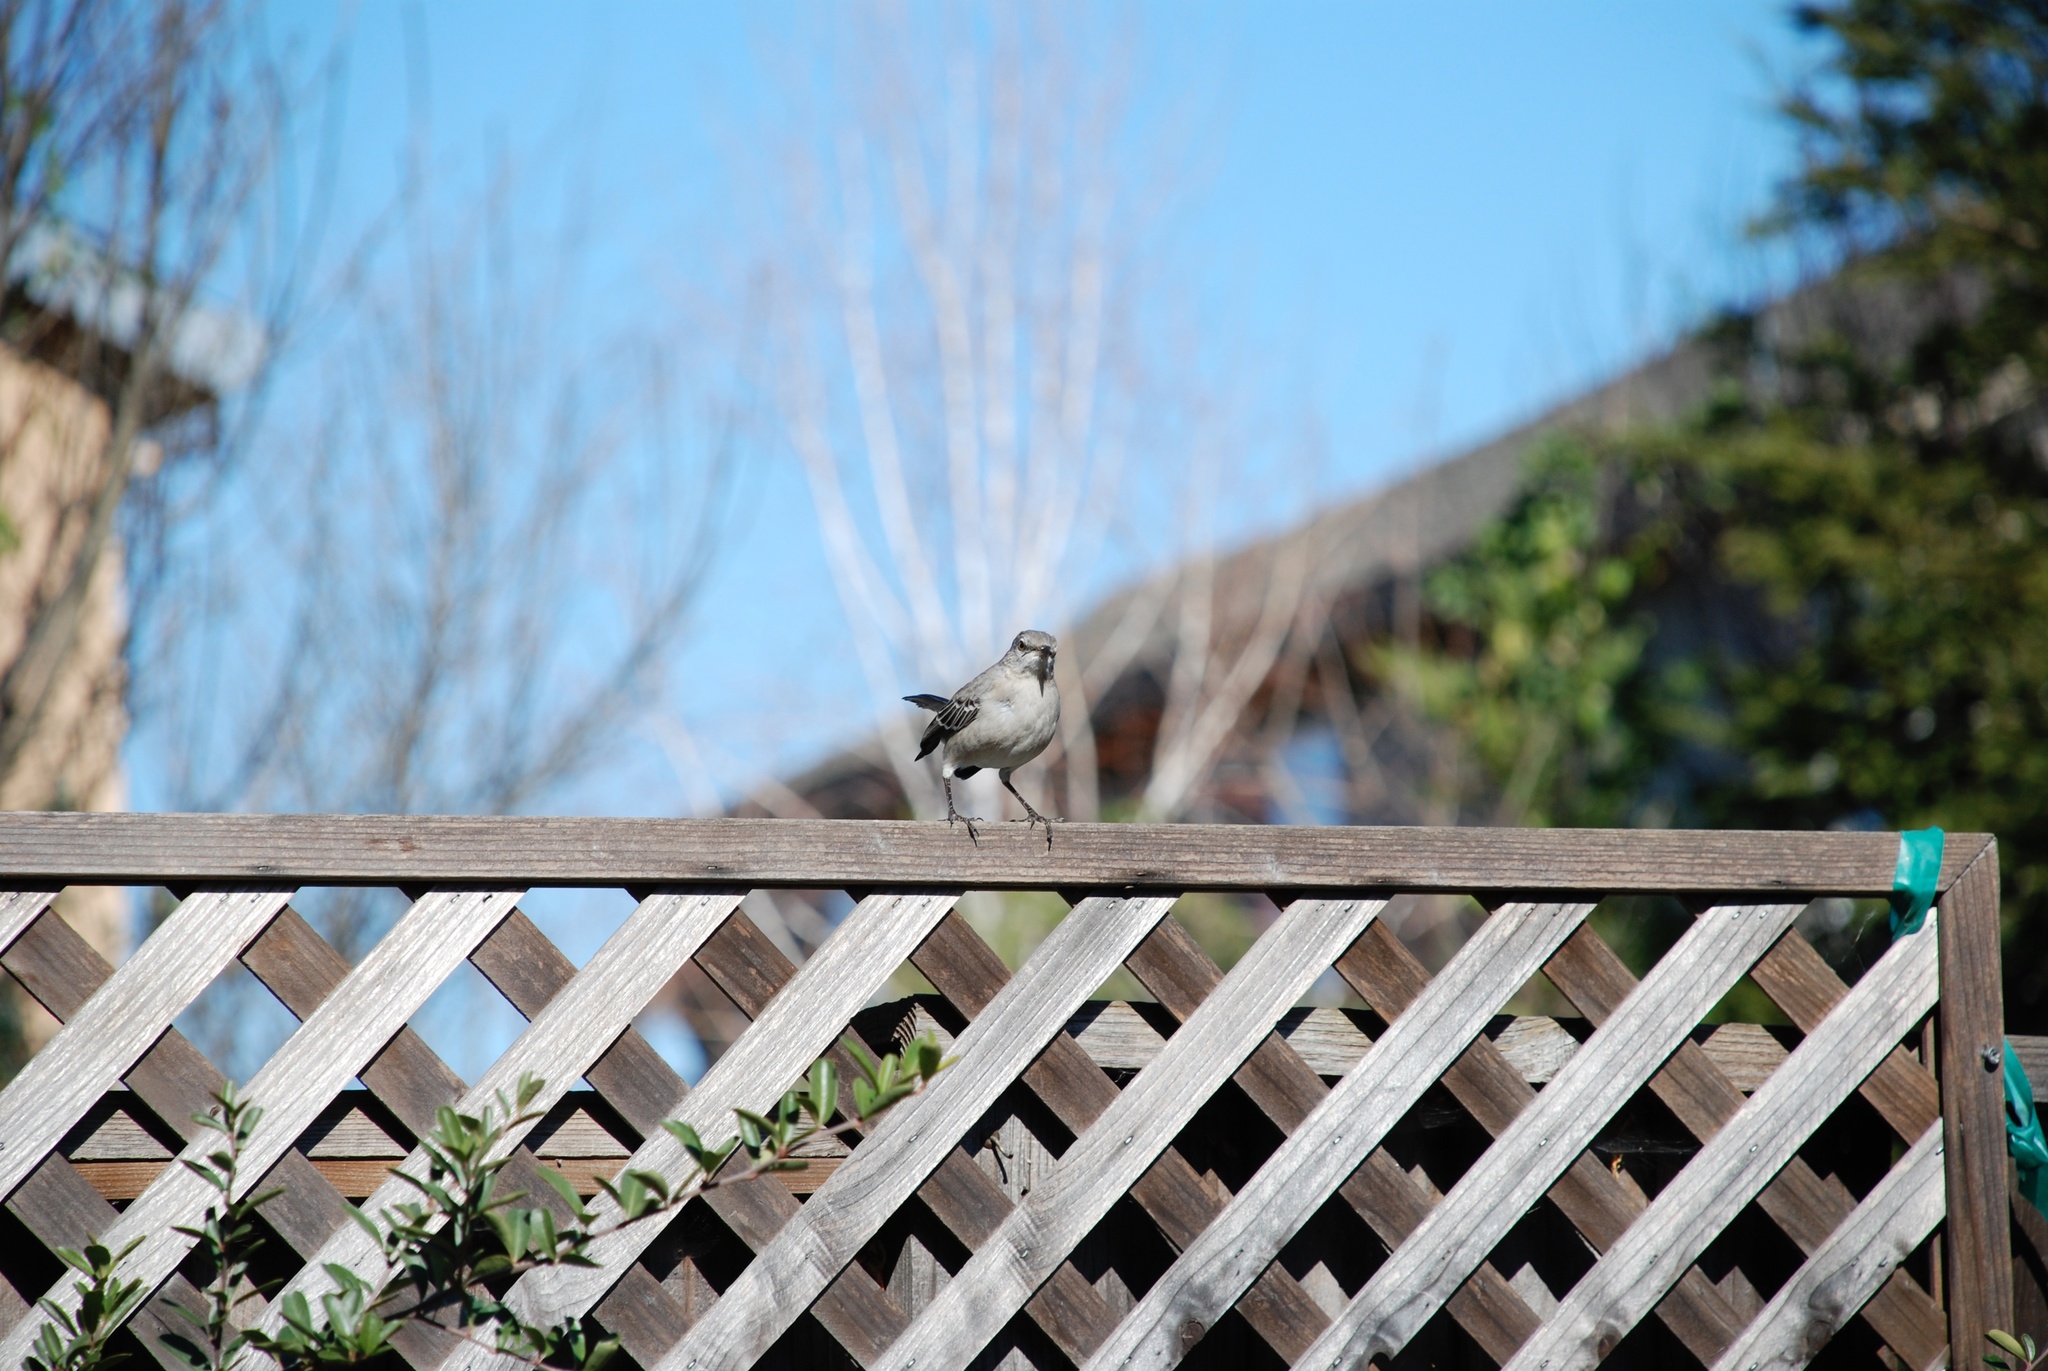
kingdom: Animalia
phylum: Chordata
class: Aves
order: Passeriformes
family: Mimidae
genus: Mimus
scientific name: Mimus polyglottos
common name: Northern mockingbird
